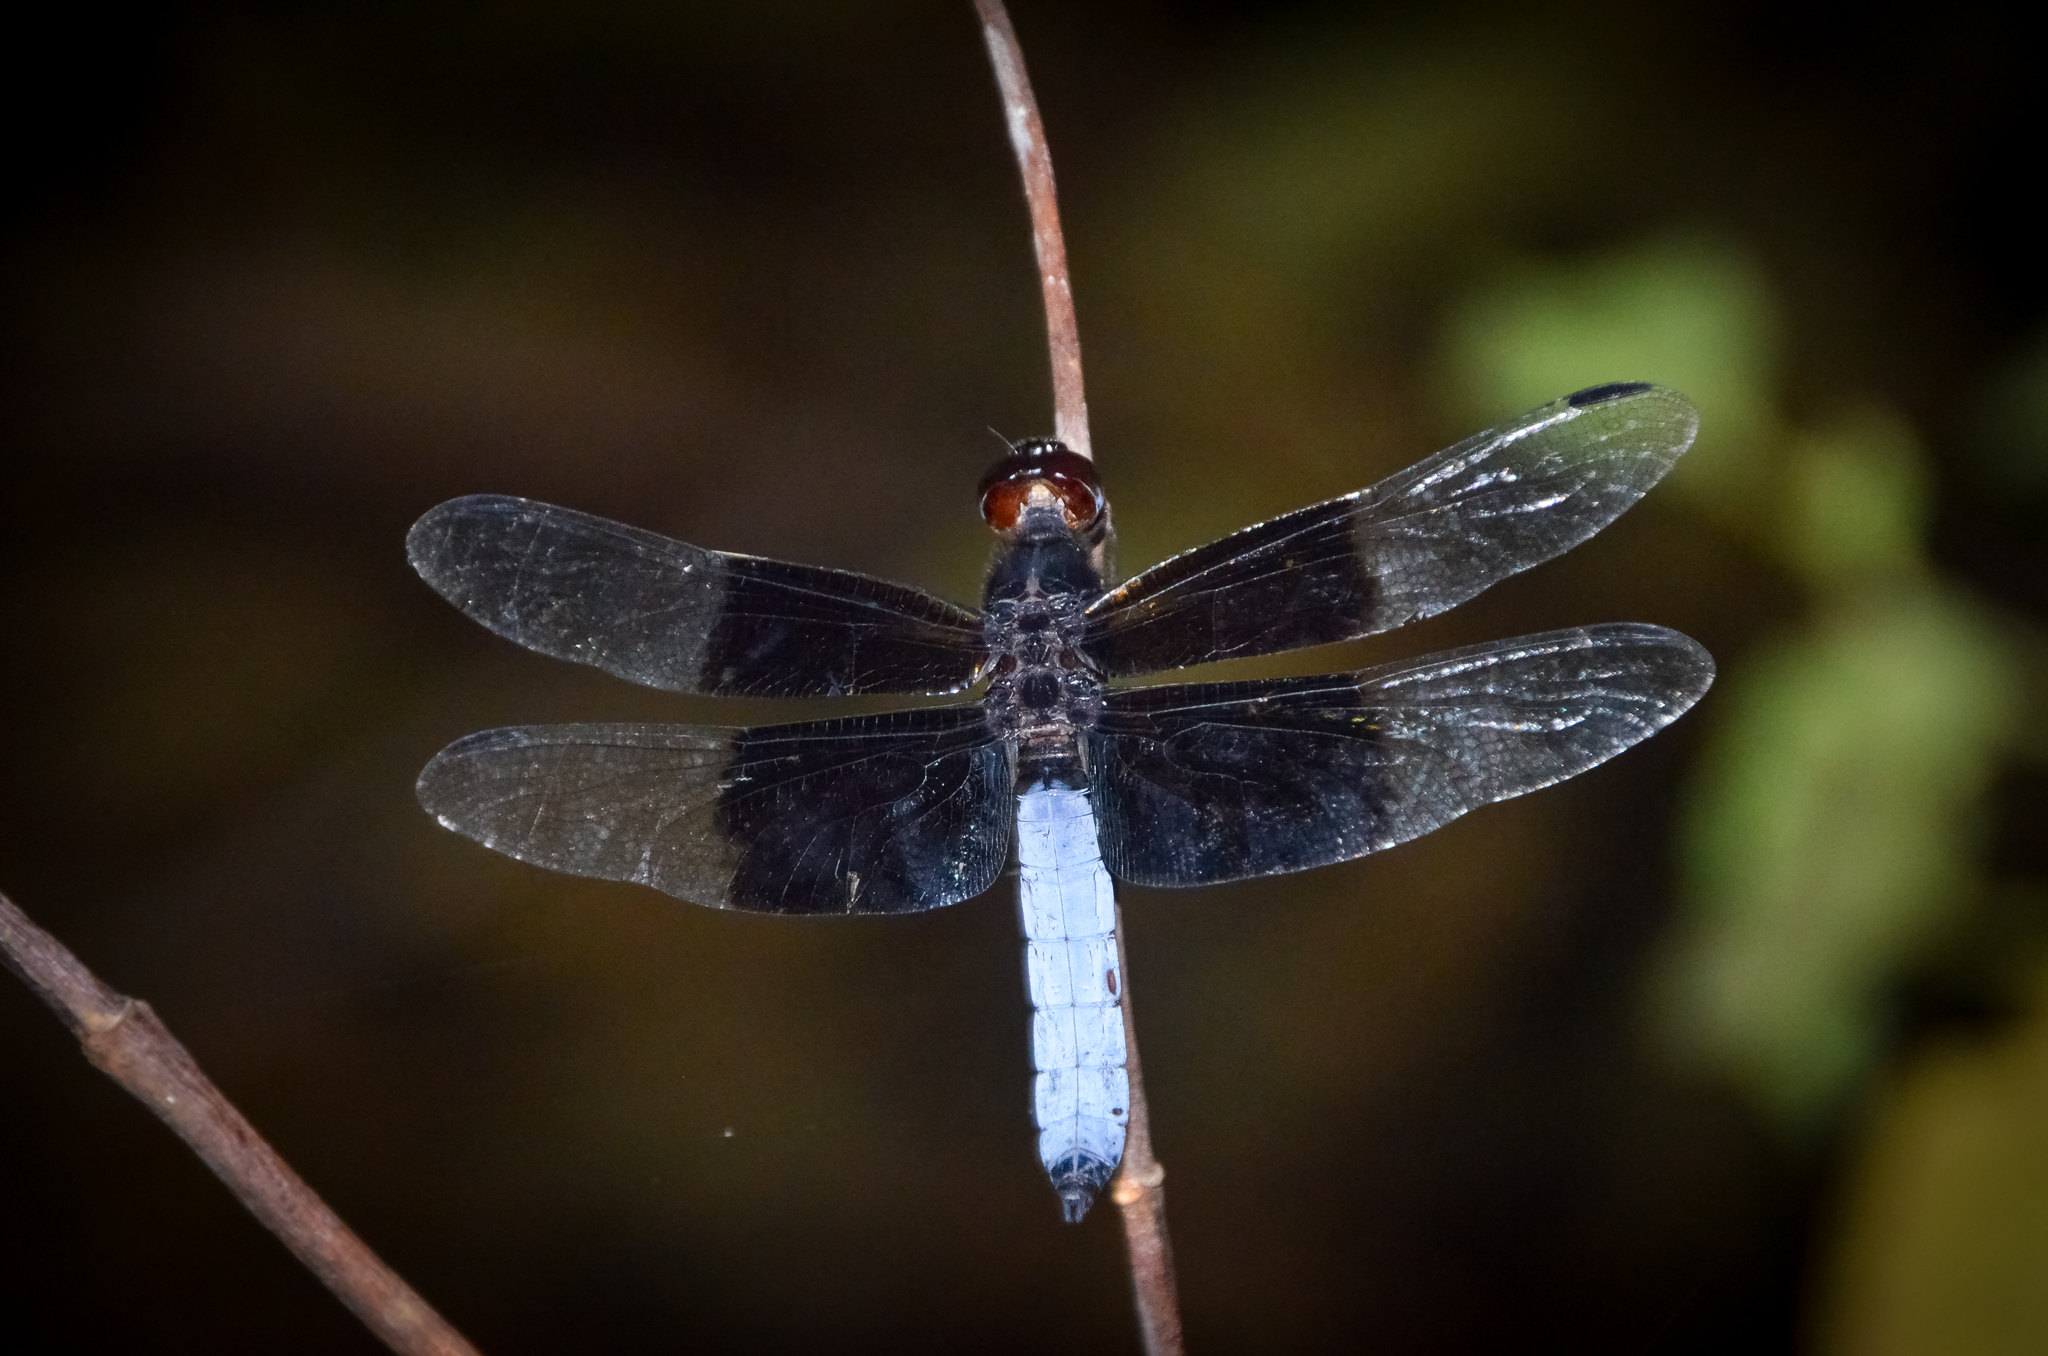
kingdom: Animalia
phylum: Arthropoda
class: Insecta
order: Odonata
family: Libellulidae
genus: Thermorthemis
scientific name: Thermorthemis madagascariensis
